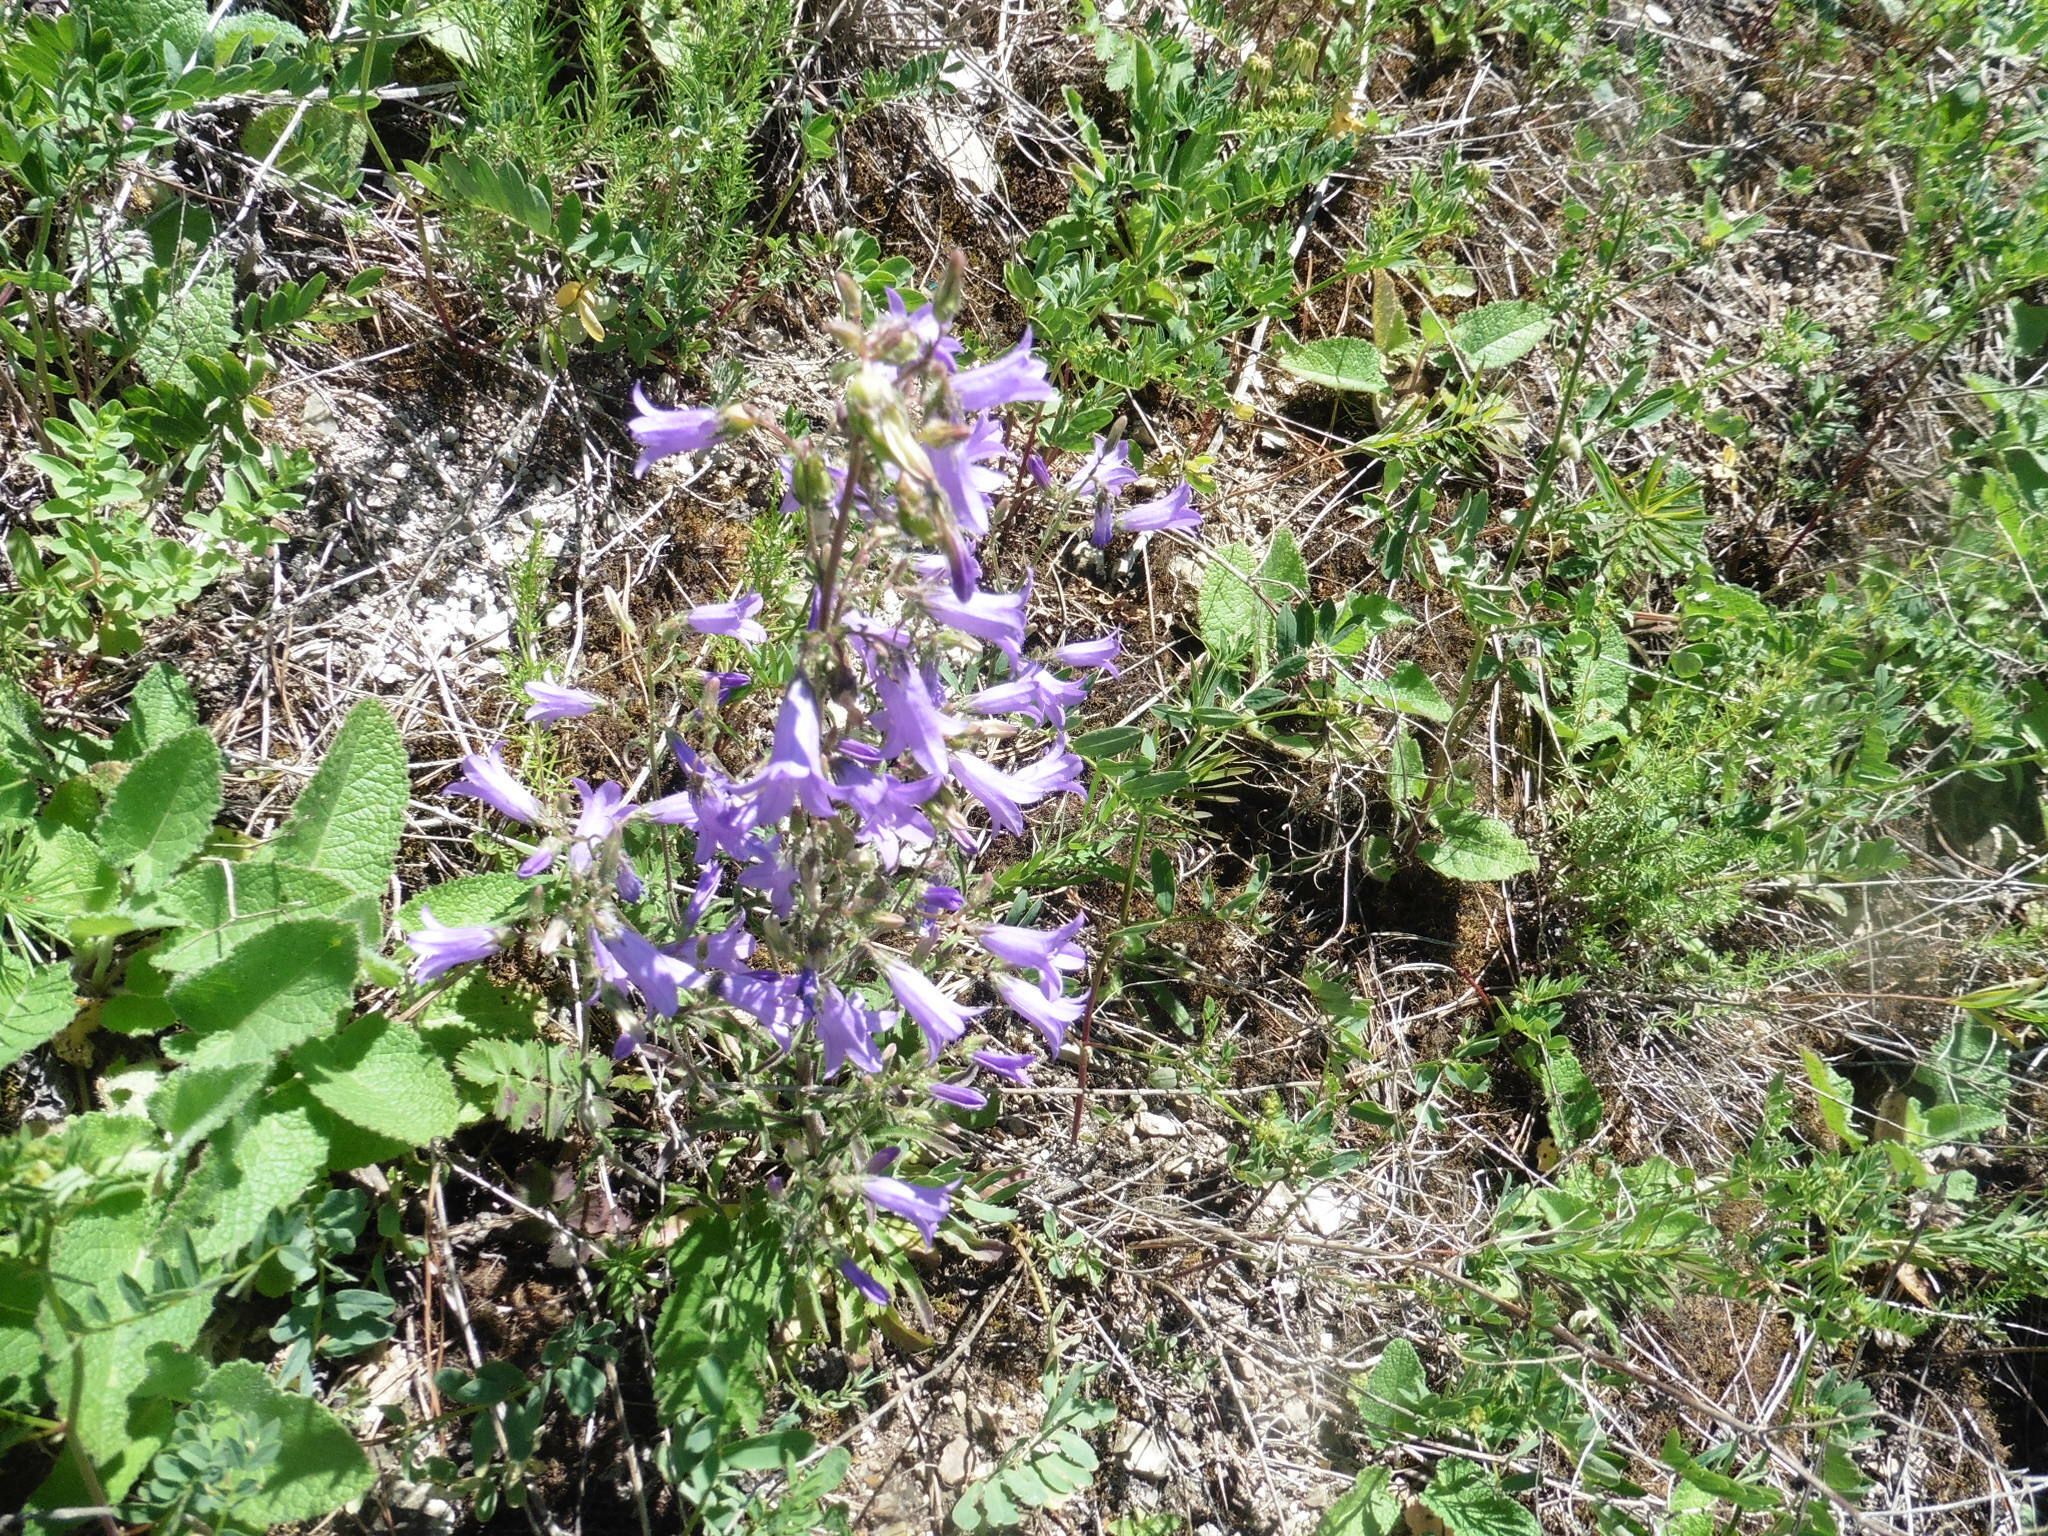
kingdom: Plantae
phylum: Tracheophyta
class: Magnoliopsida
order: Asterales
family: Campanulaceae
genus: Campanula
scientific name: Campanula sibirica
